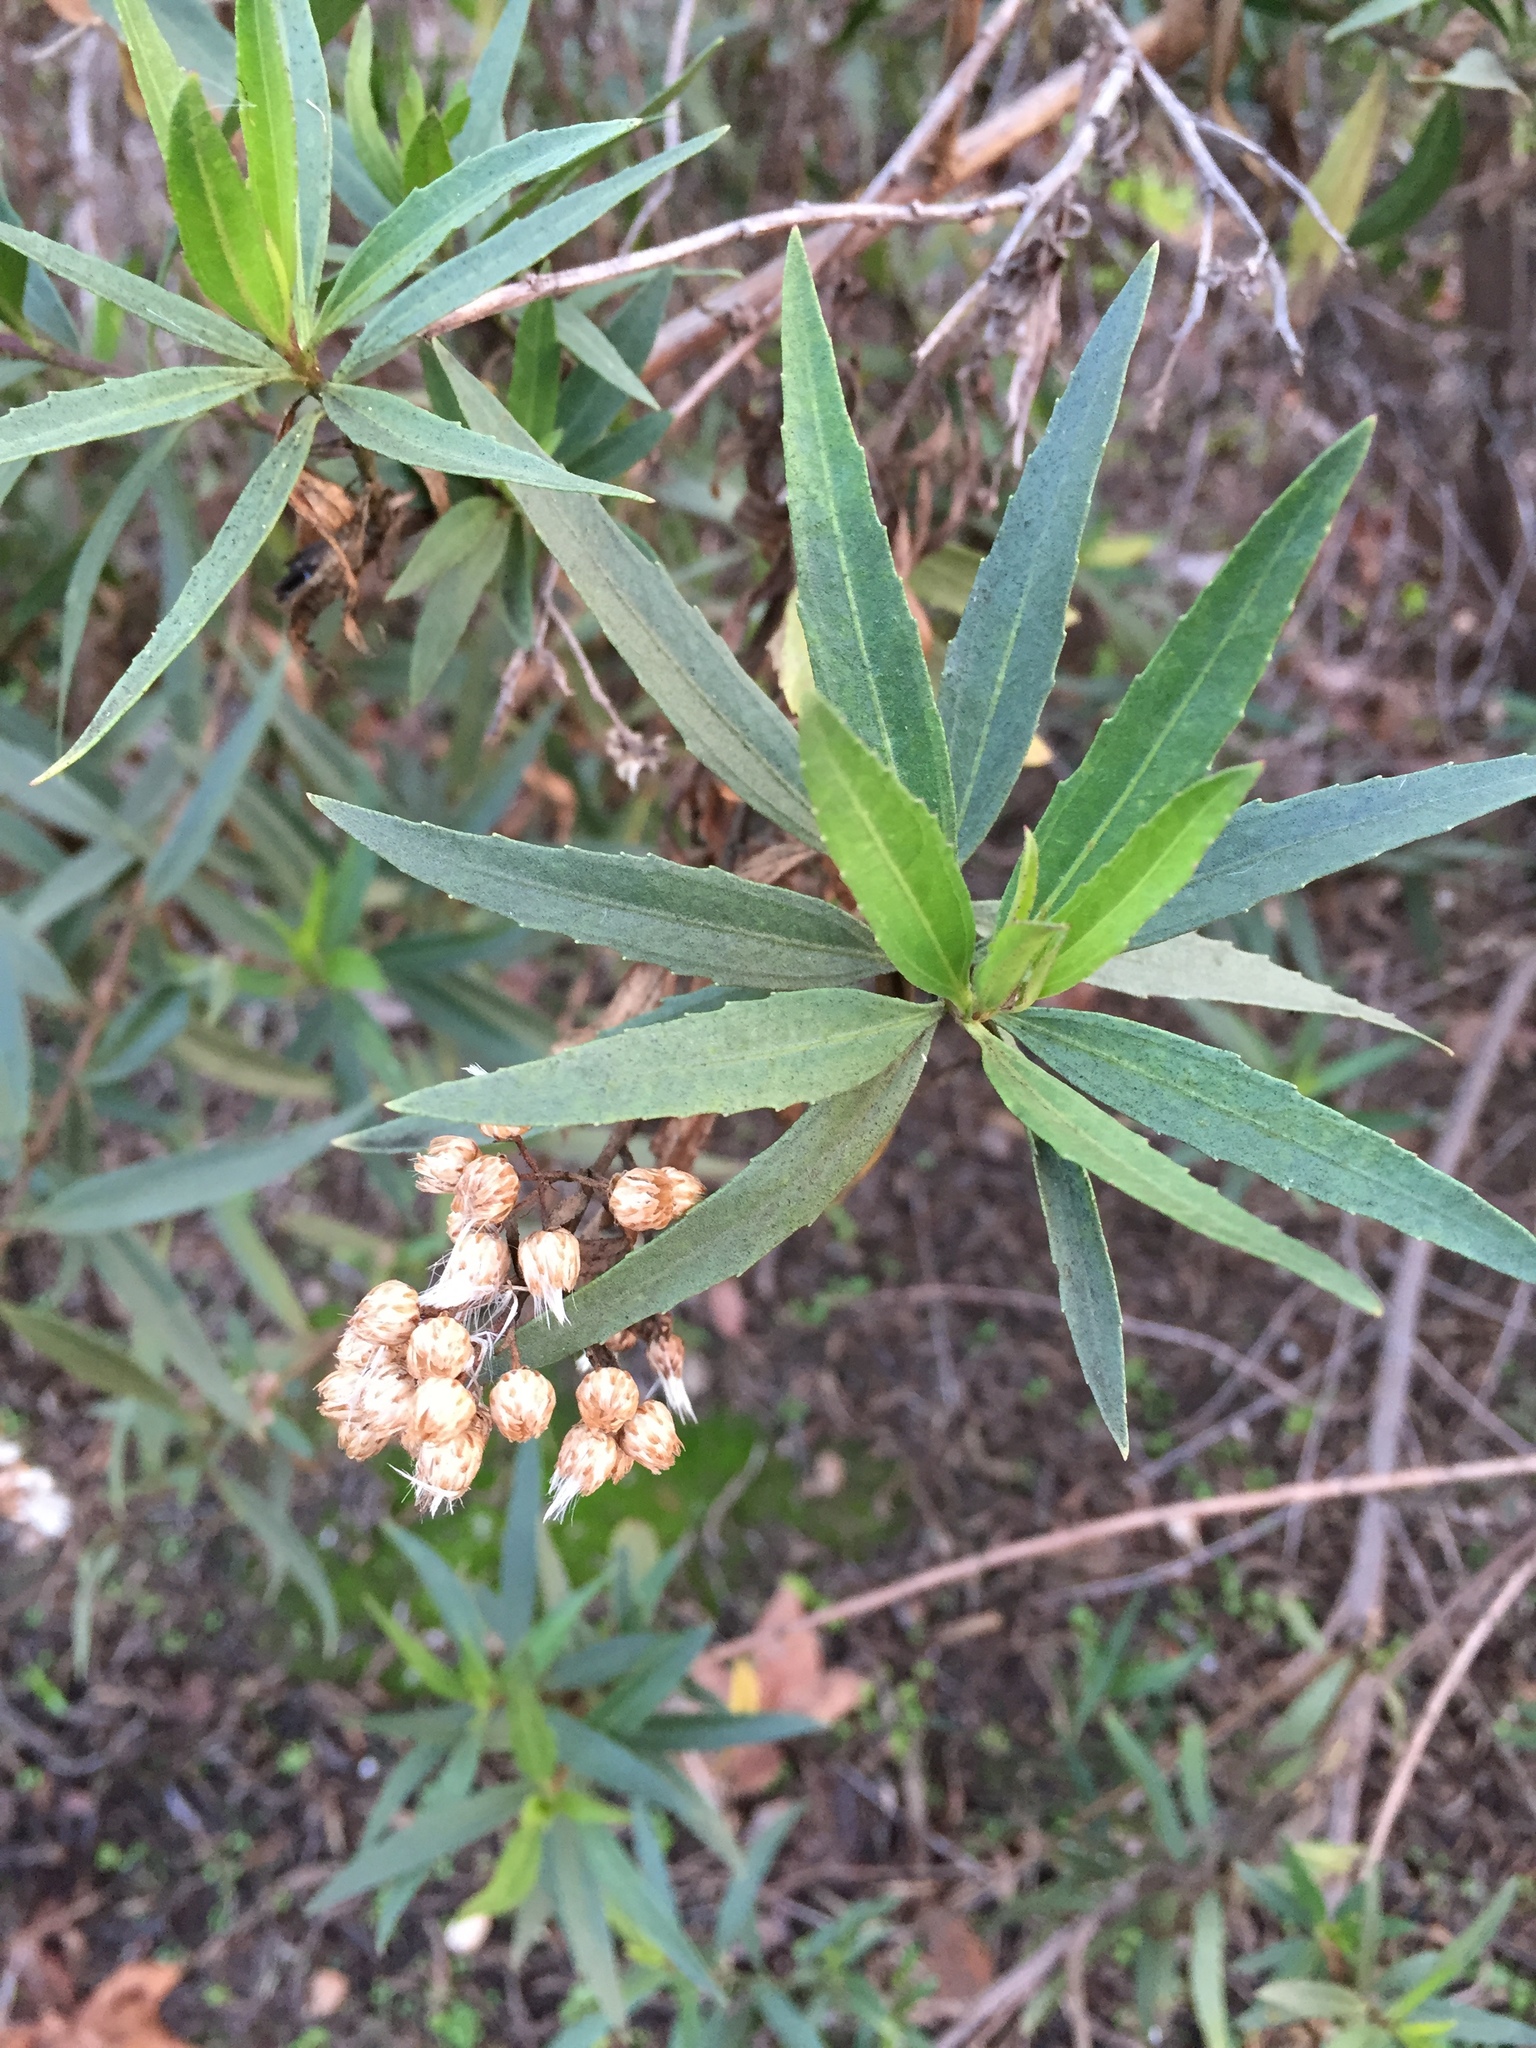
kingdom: Plantae
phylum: Tracheophyta
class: Magnoliopsida
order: Asterales
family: Asteraceae
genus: Baccharis
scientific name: Baccharis salicifolia
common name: Sticky baccharis
